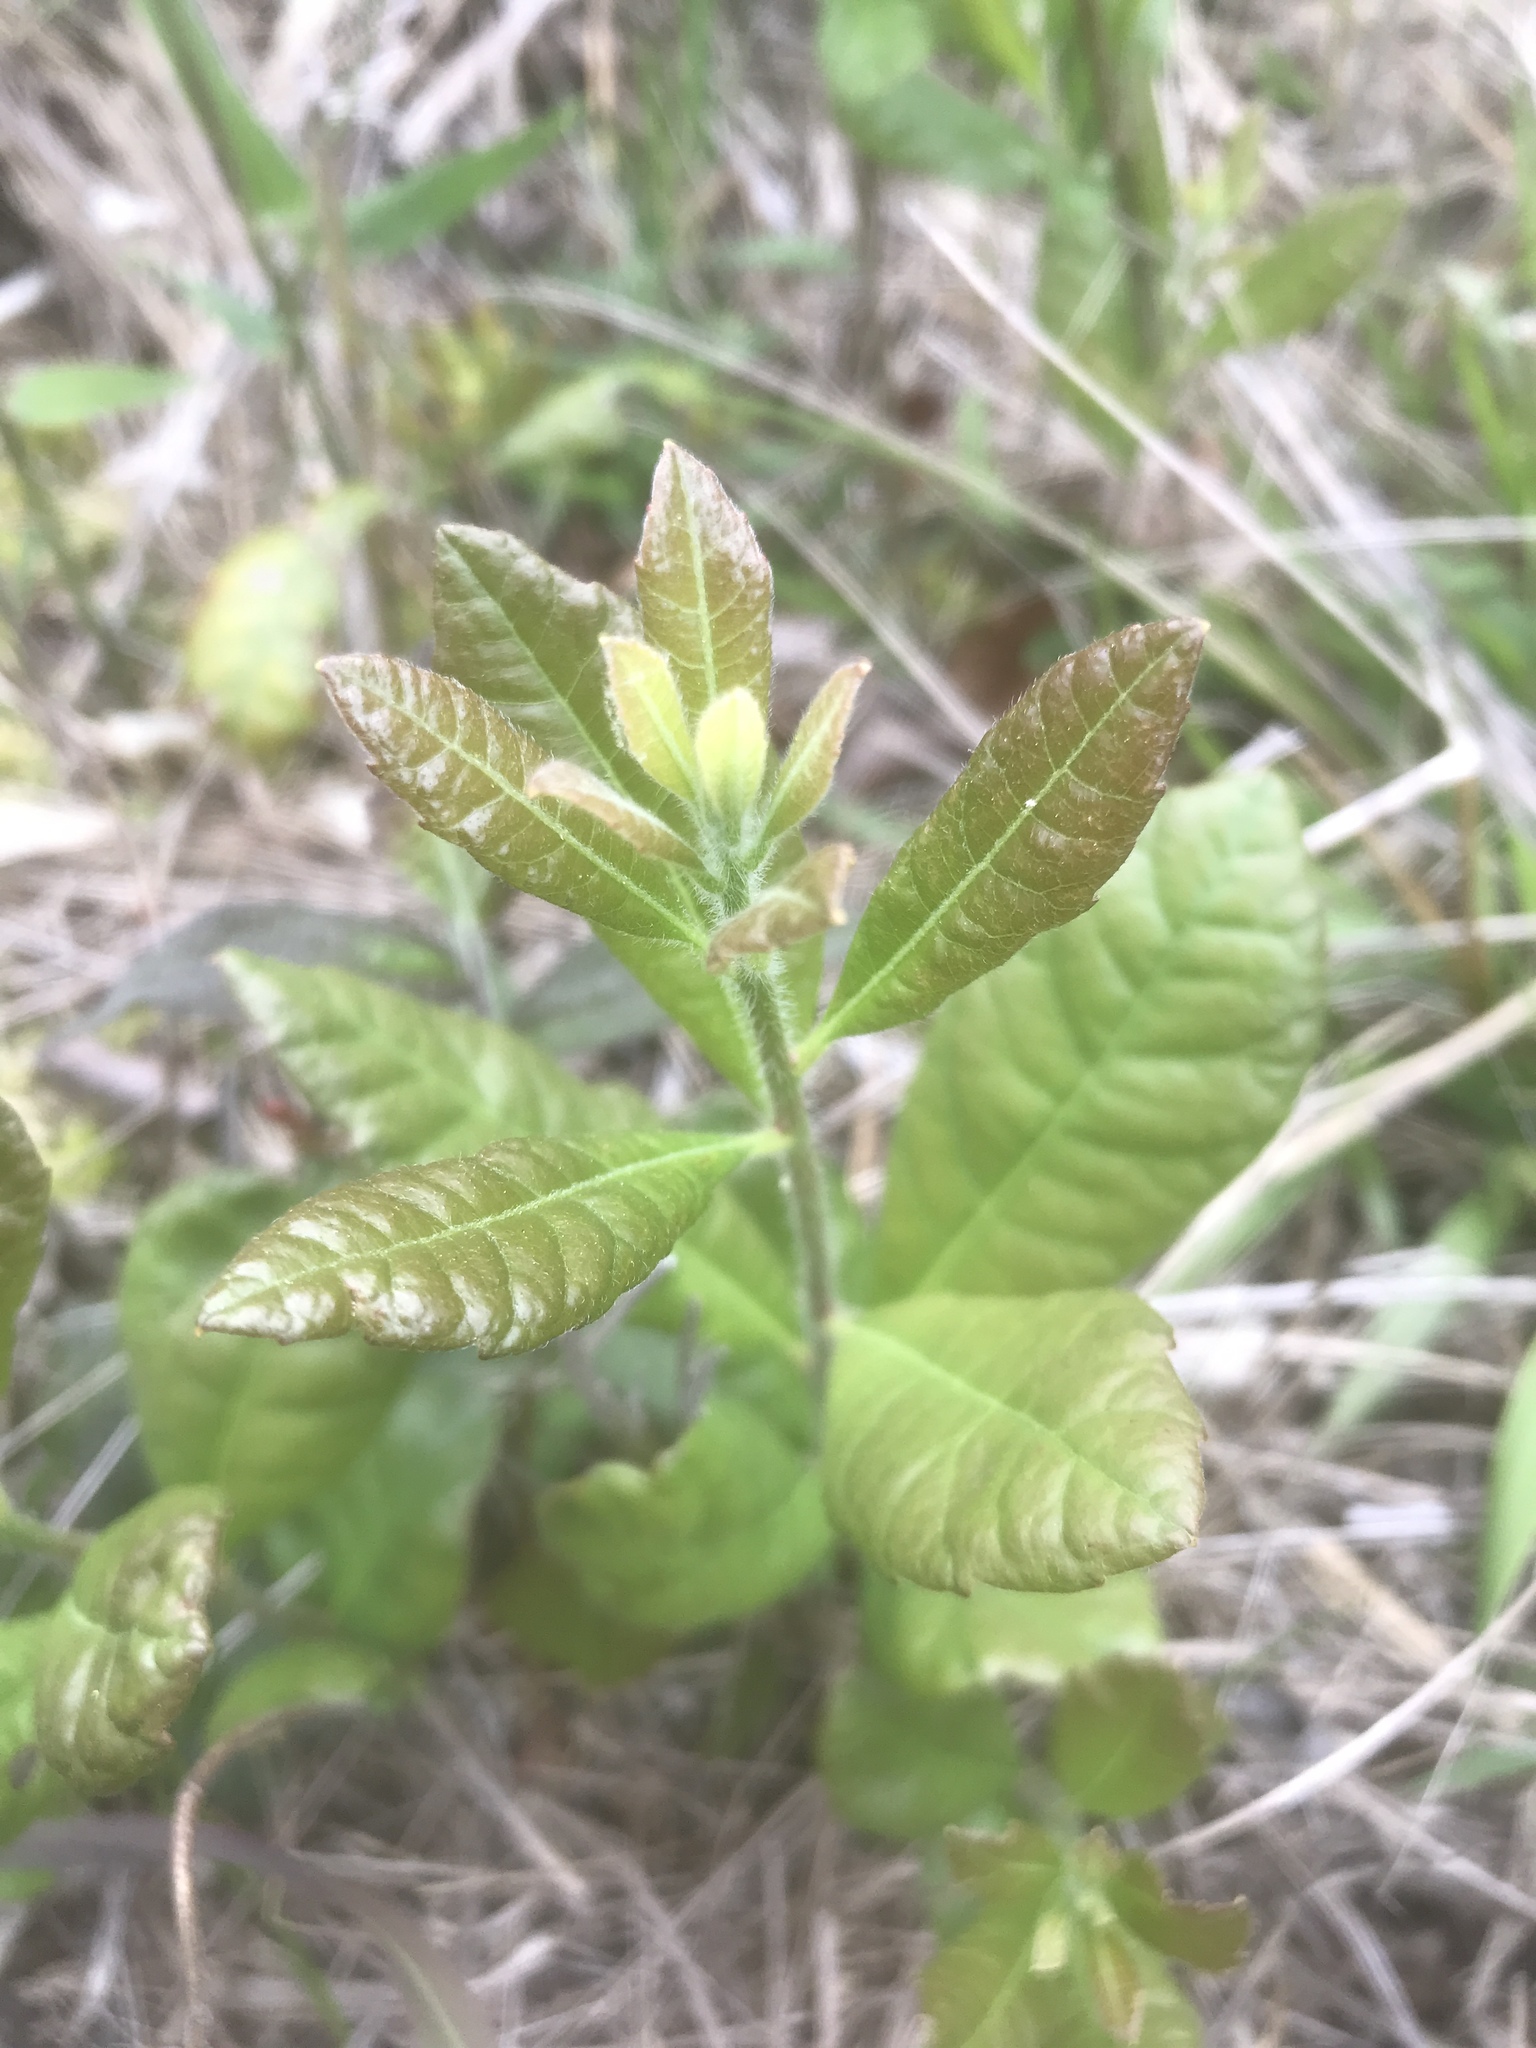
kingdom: Plantae
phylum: Tracheophyta
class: Magnoliopsida
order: Fagales
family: Myricaceae
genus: Morella
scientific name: Morella caroliniensis
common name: Evergreen bayberry
